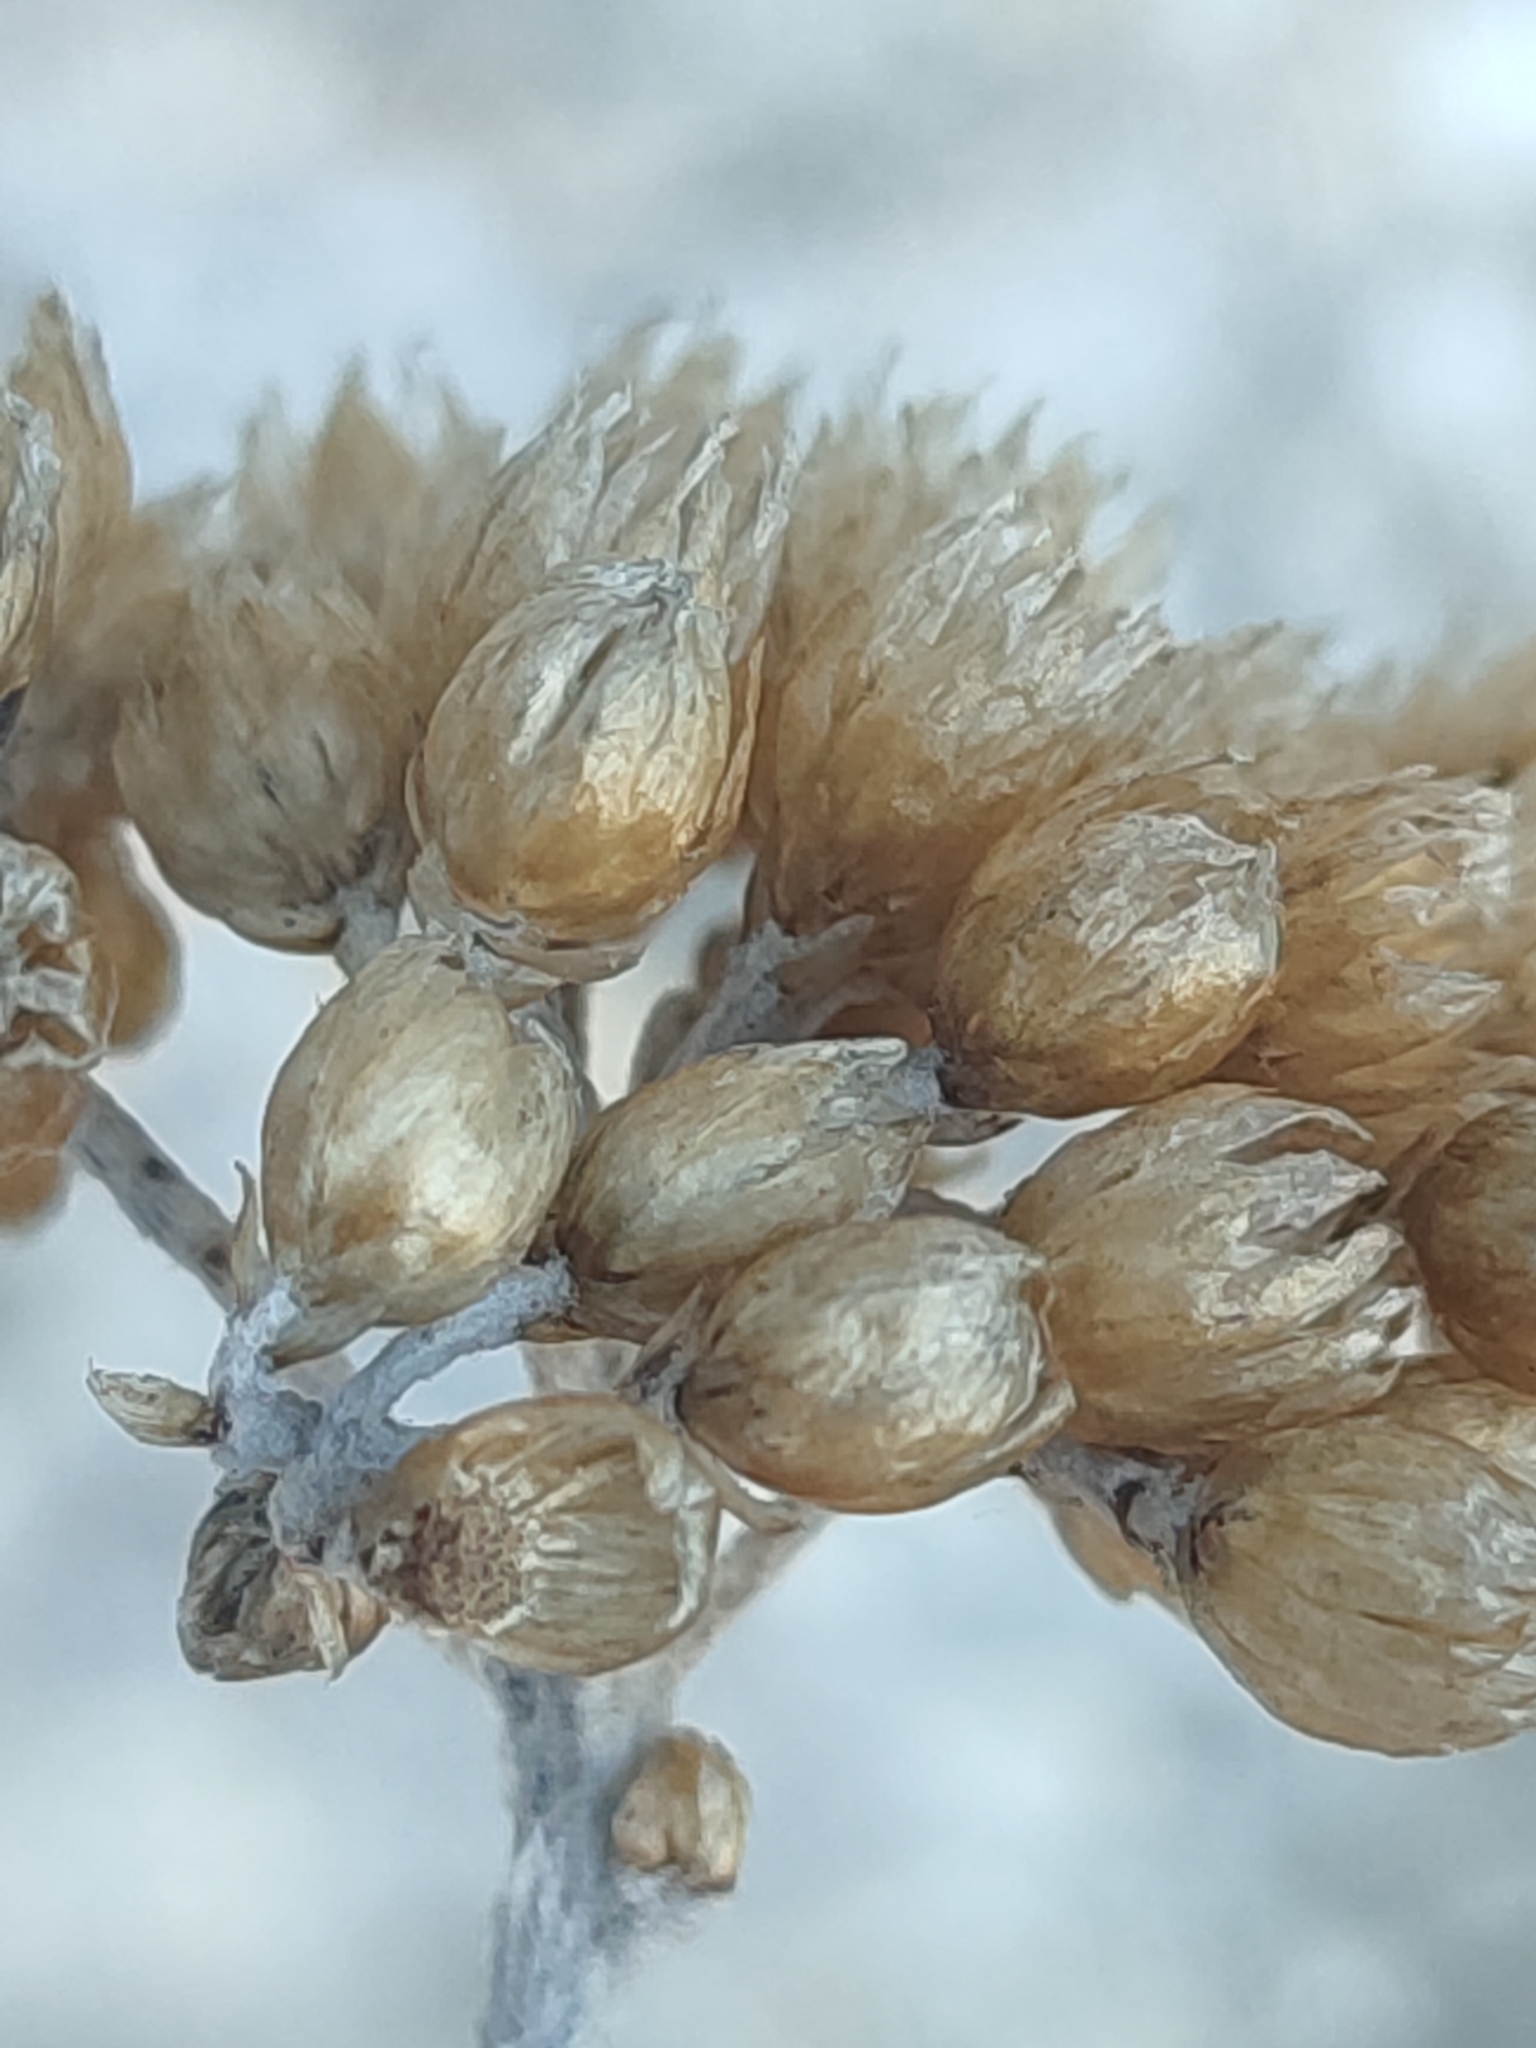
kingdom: Plantae
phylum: Tracheophyta
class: Magnoliopsida
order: Asterales
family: Asteraceae
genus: Helichrysum
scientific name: Helichrysum crassifolium
